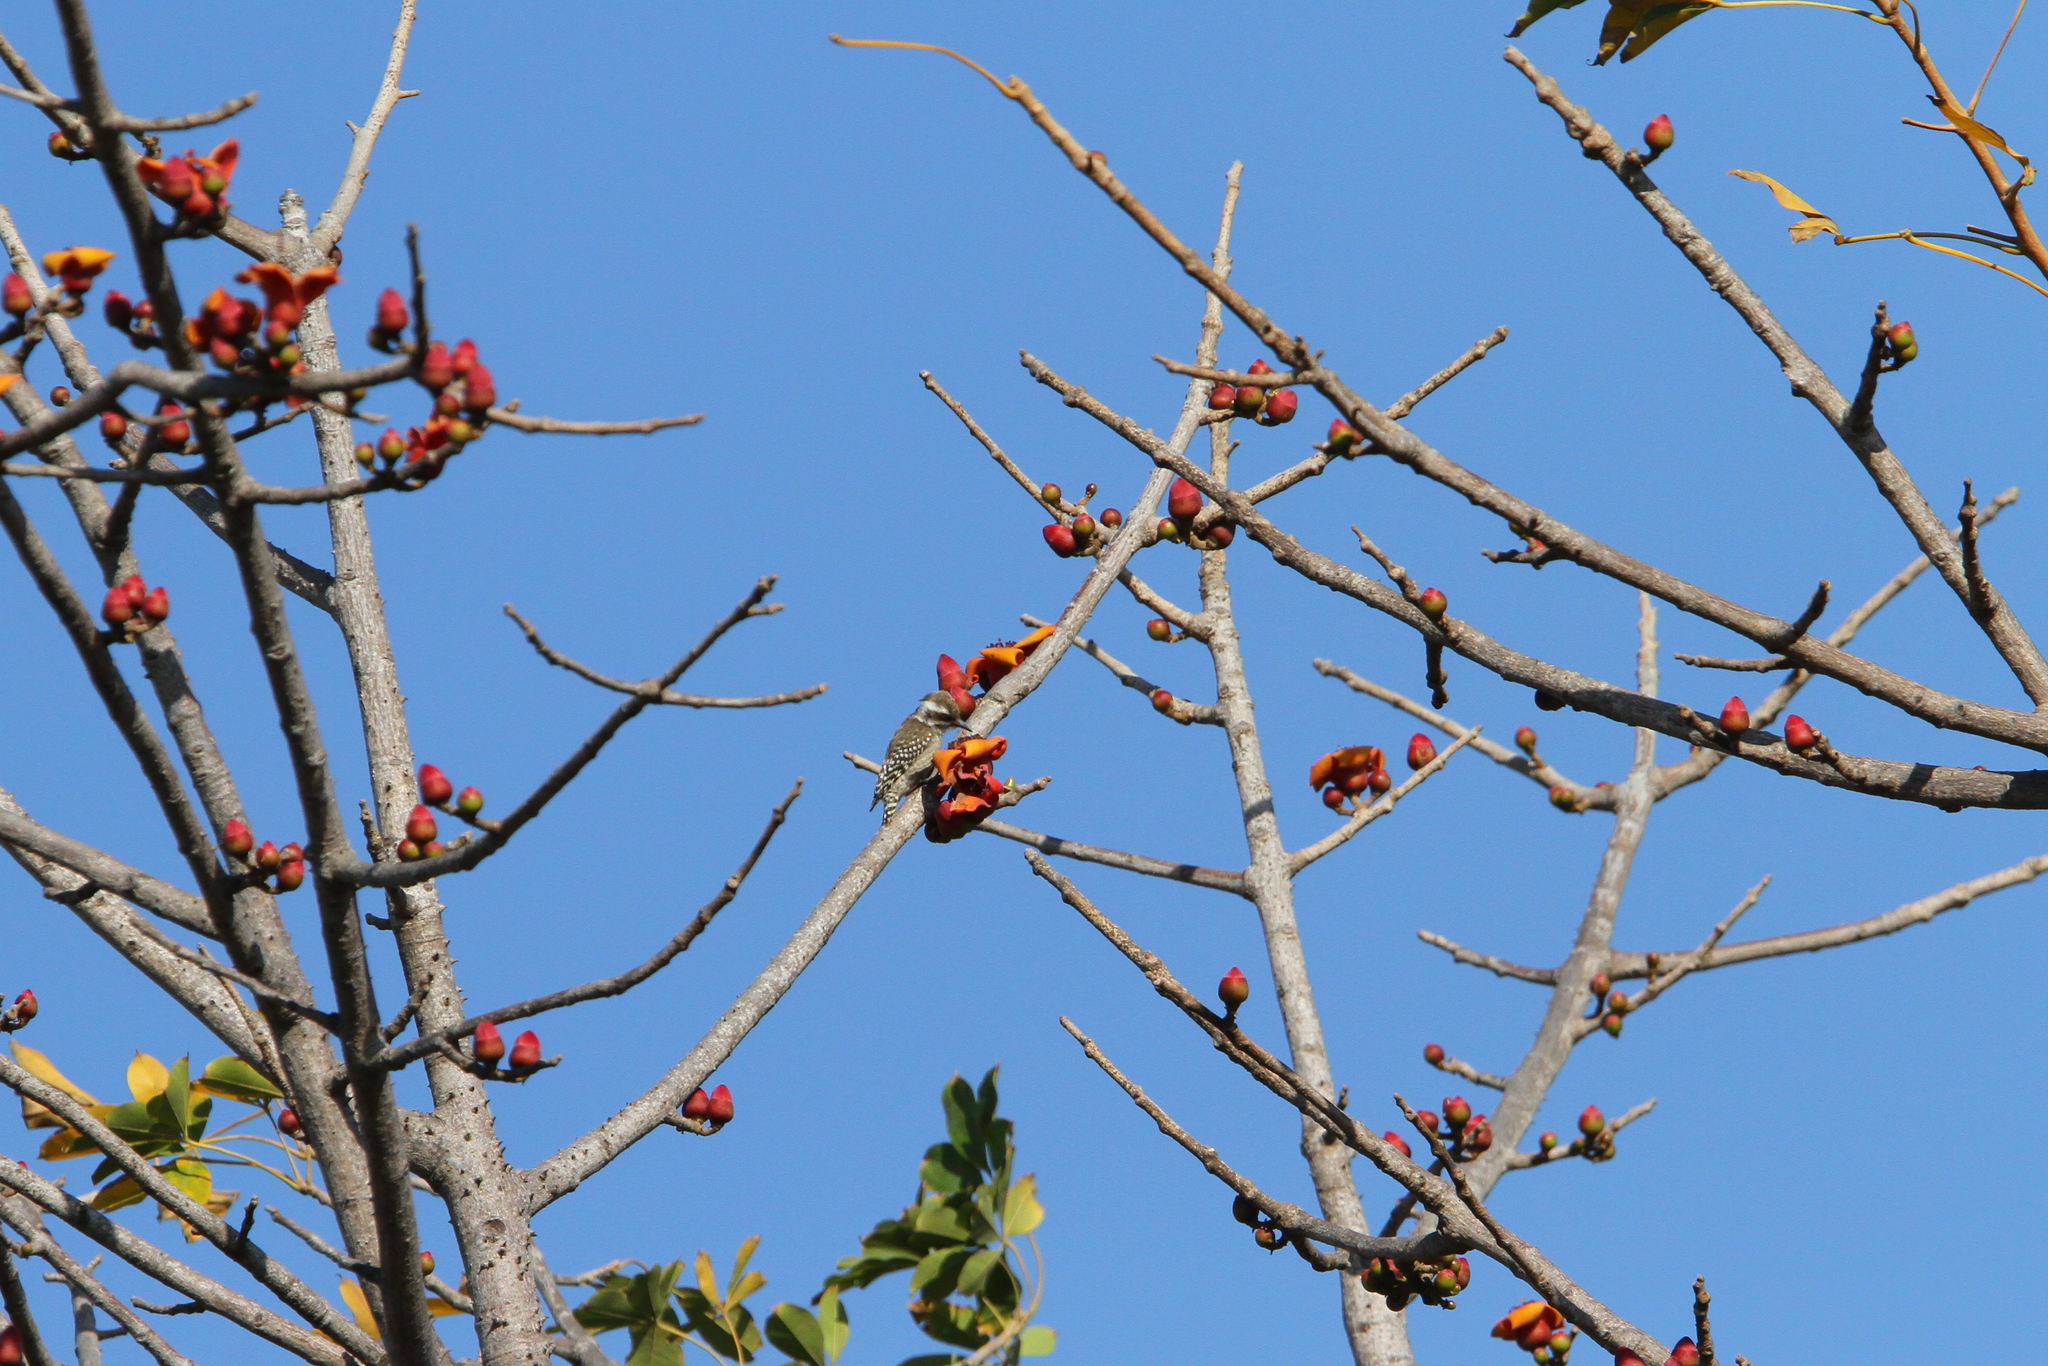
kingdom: Animalia
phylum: Chordata
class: Aves
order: Piciformes
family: Picidae
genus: Dendropicos
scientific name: Dendropicos obsoletus
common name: Brown-backed woodpecker
